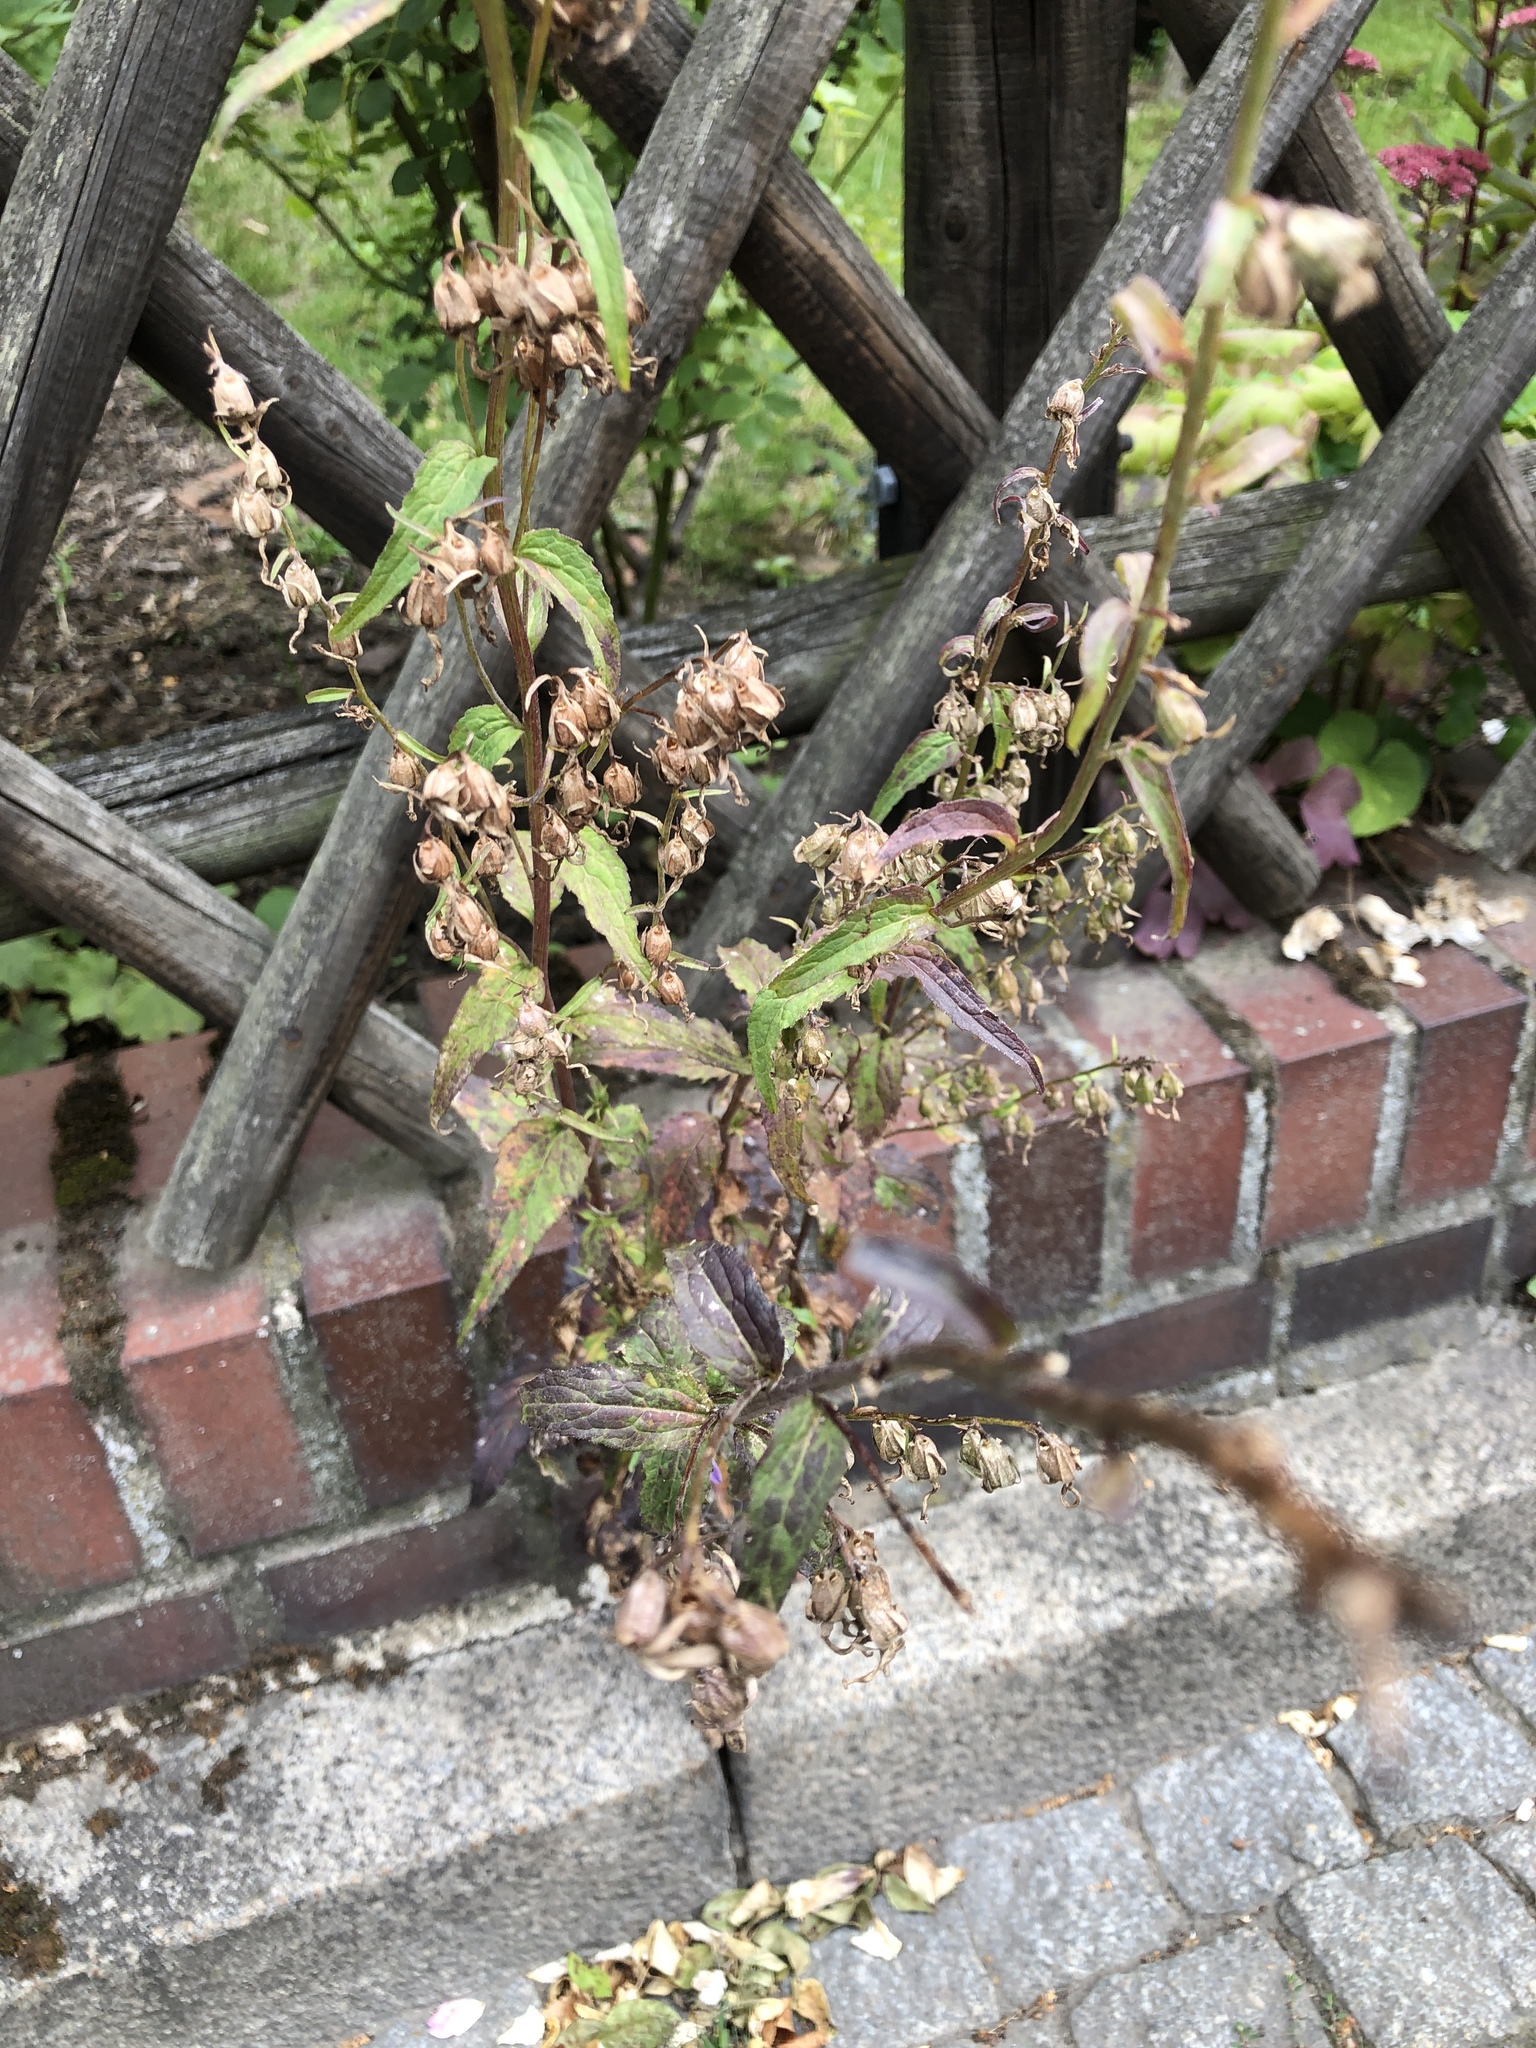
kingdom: Plantae
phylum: Tracheophyta
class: Magnoliopsida
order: Asterales
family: Campanulaceae
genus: Campanula
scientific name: Campanula trachelium
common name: Nettle-leaved bellflower
